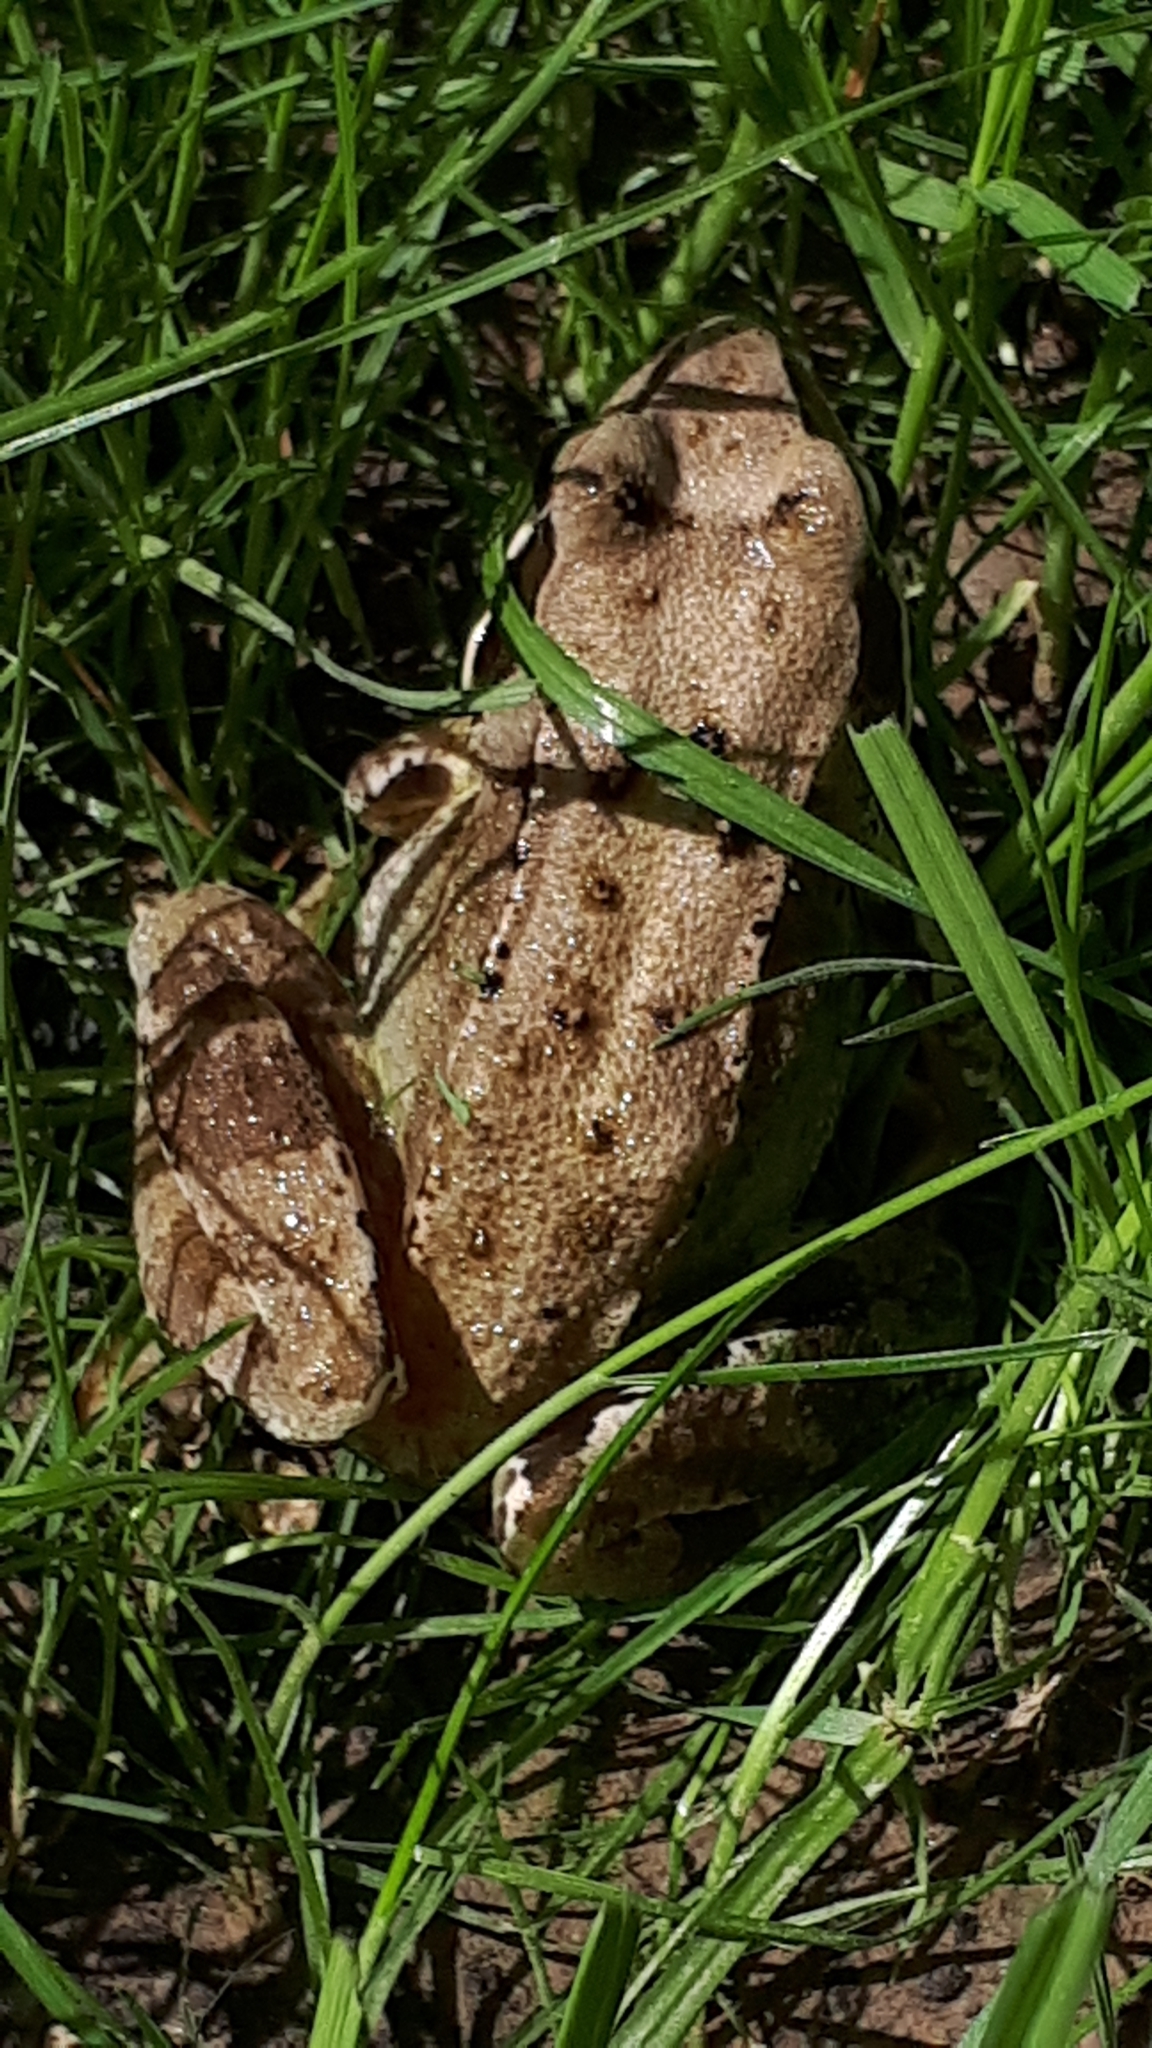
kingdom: Animalia
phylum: Chordata
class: Amphibia
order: Anura
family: Ranidae
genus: Rana
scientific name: Rana temporaria
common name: Common frog
